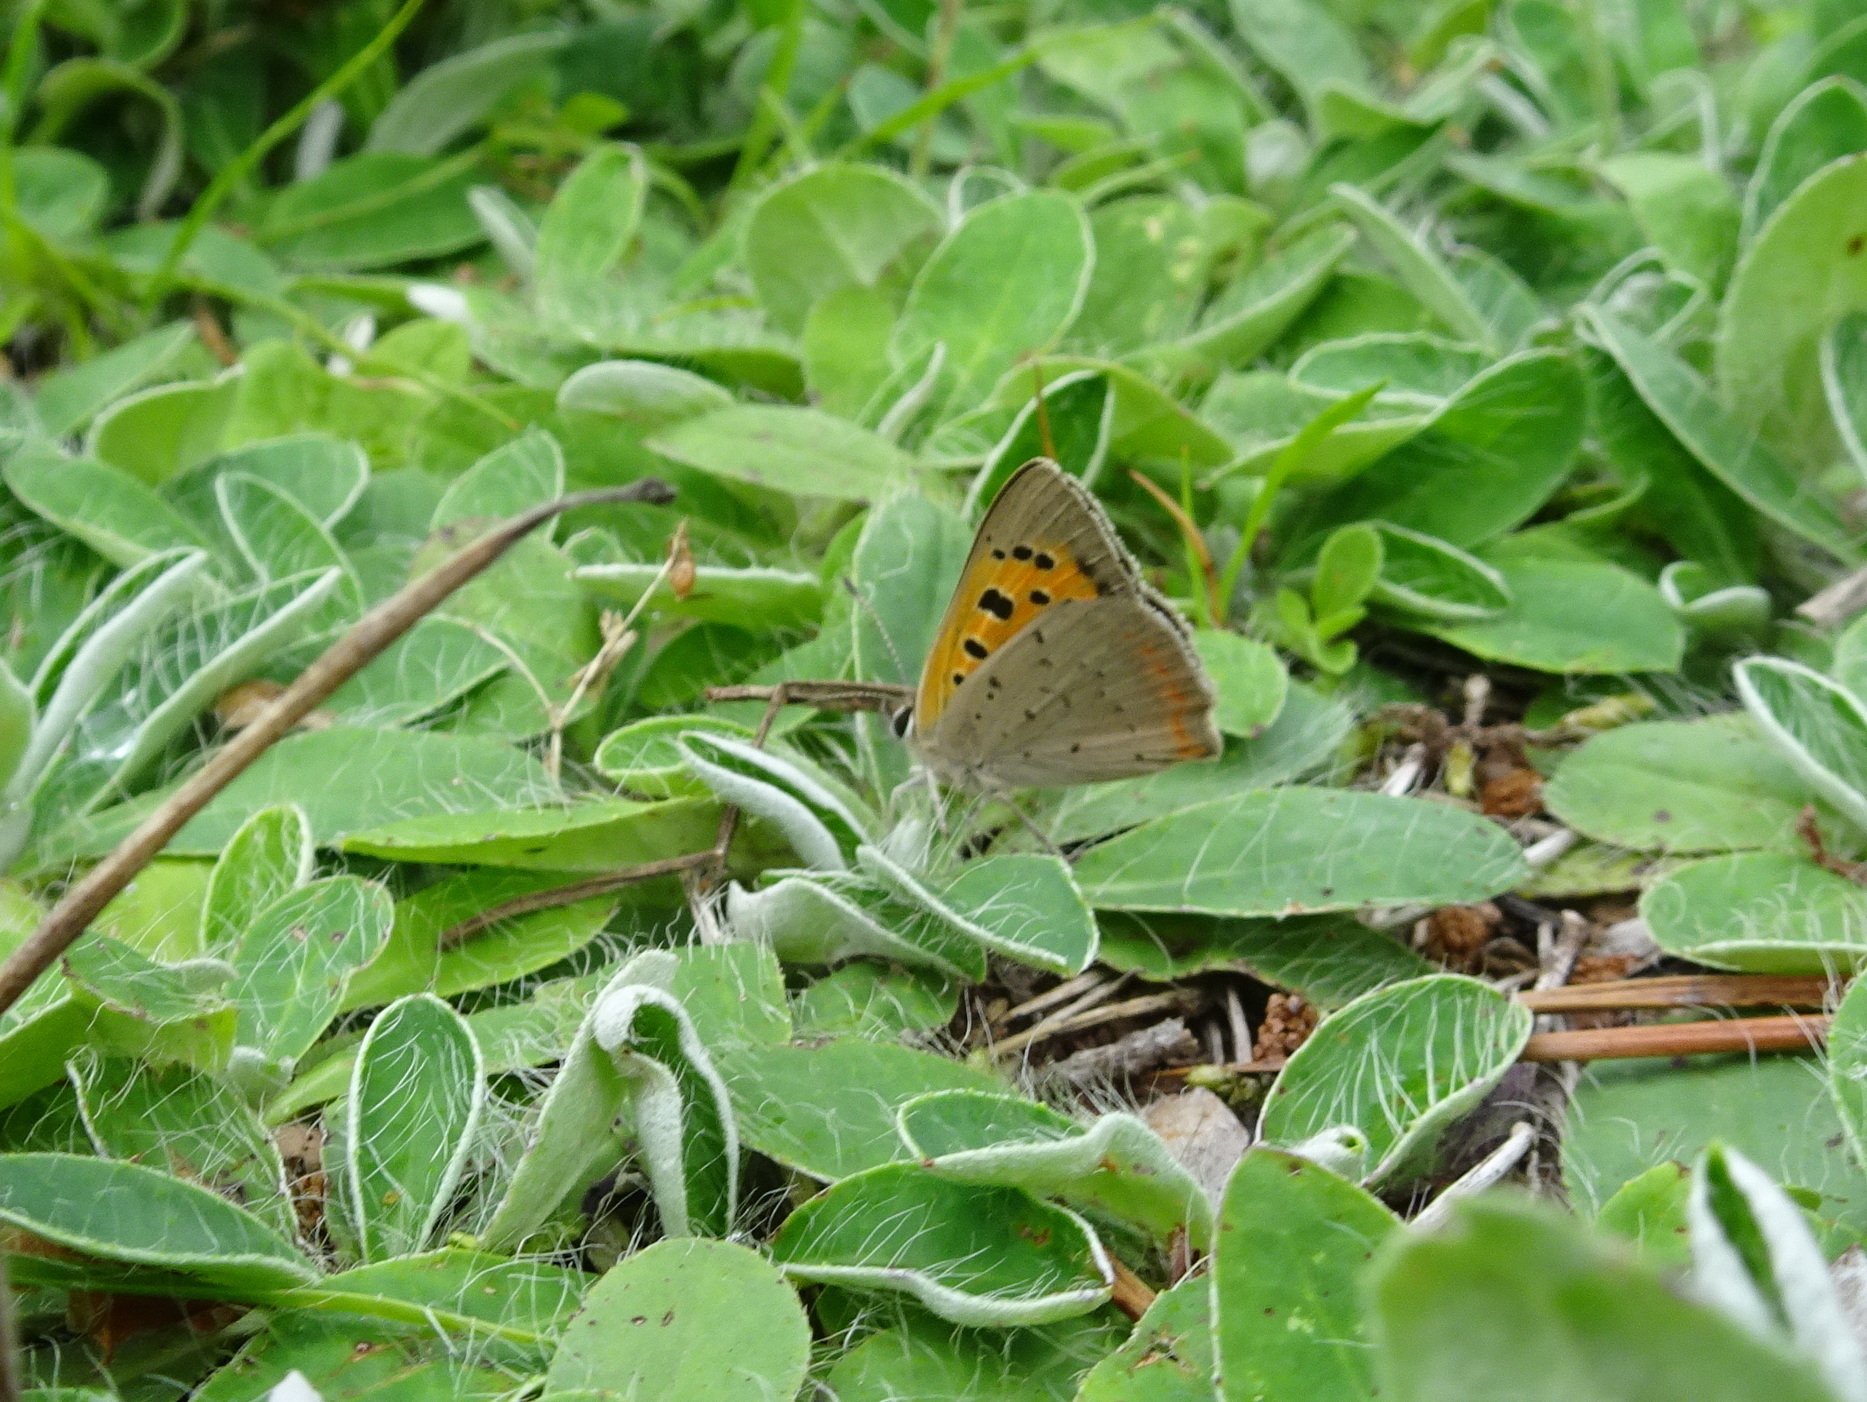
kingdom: Animalia
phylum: Arthropoda
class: Insecta
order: Lepidoptera
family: Lycaenidae
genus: Lycaena
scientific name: Lycaena phlaeas
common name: Small copper
